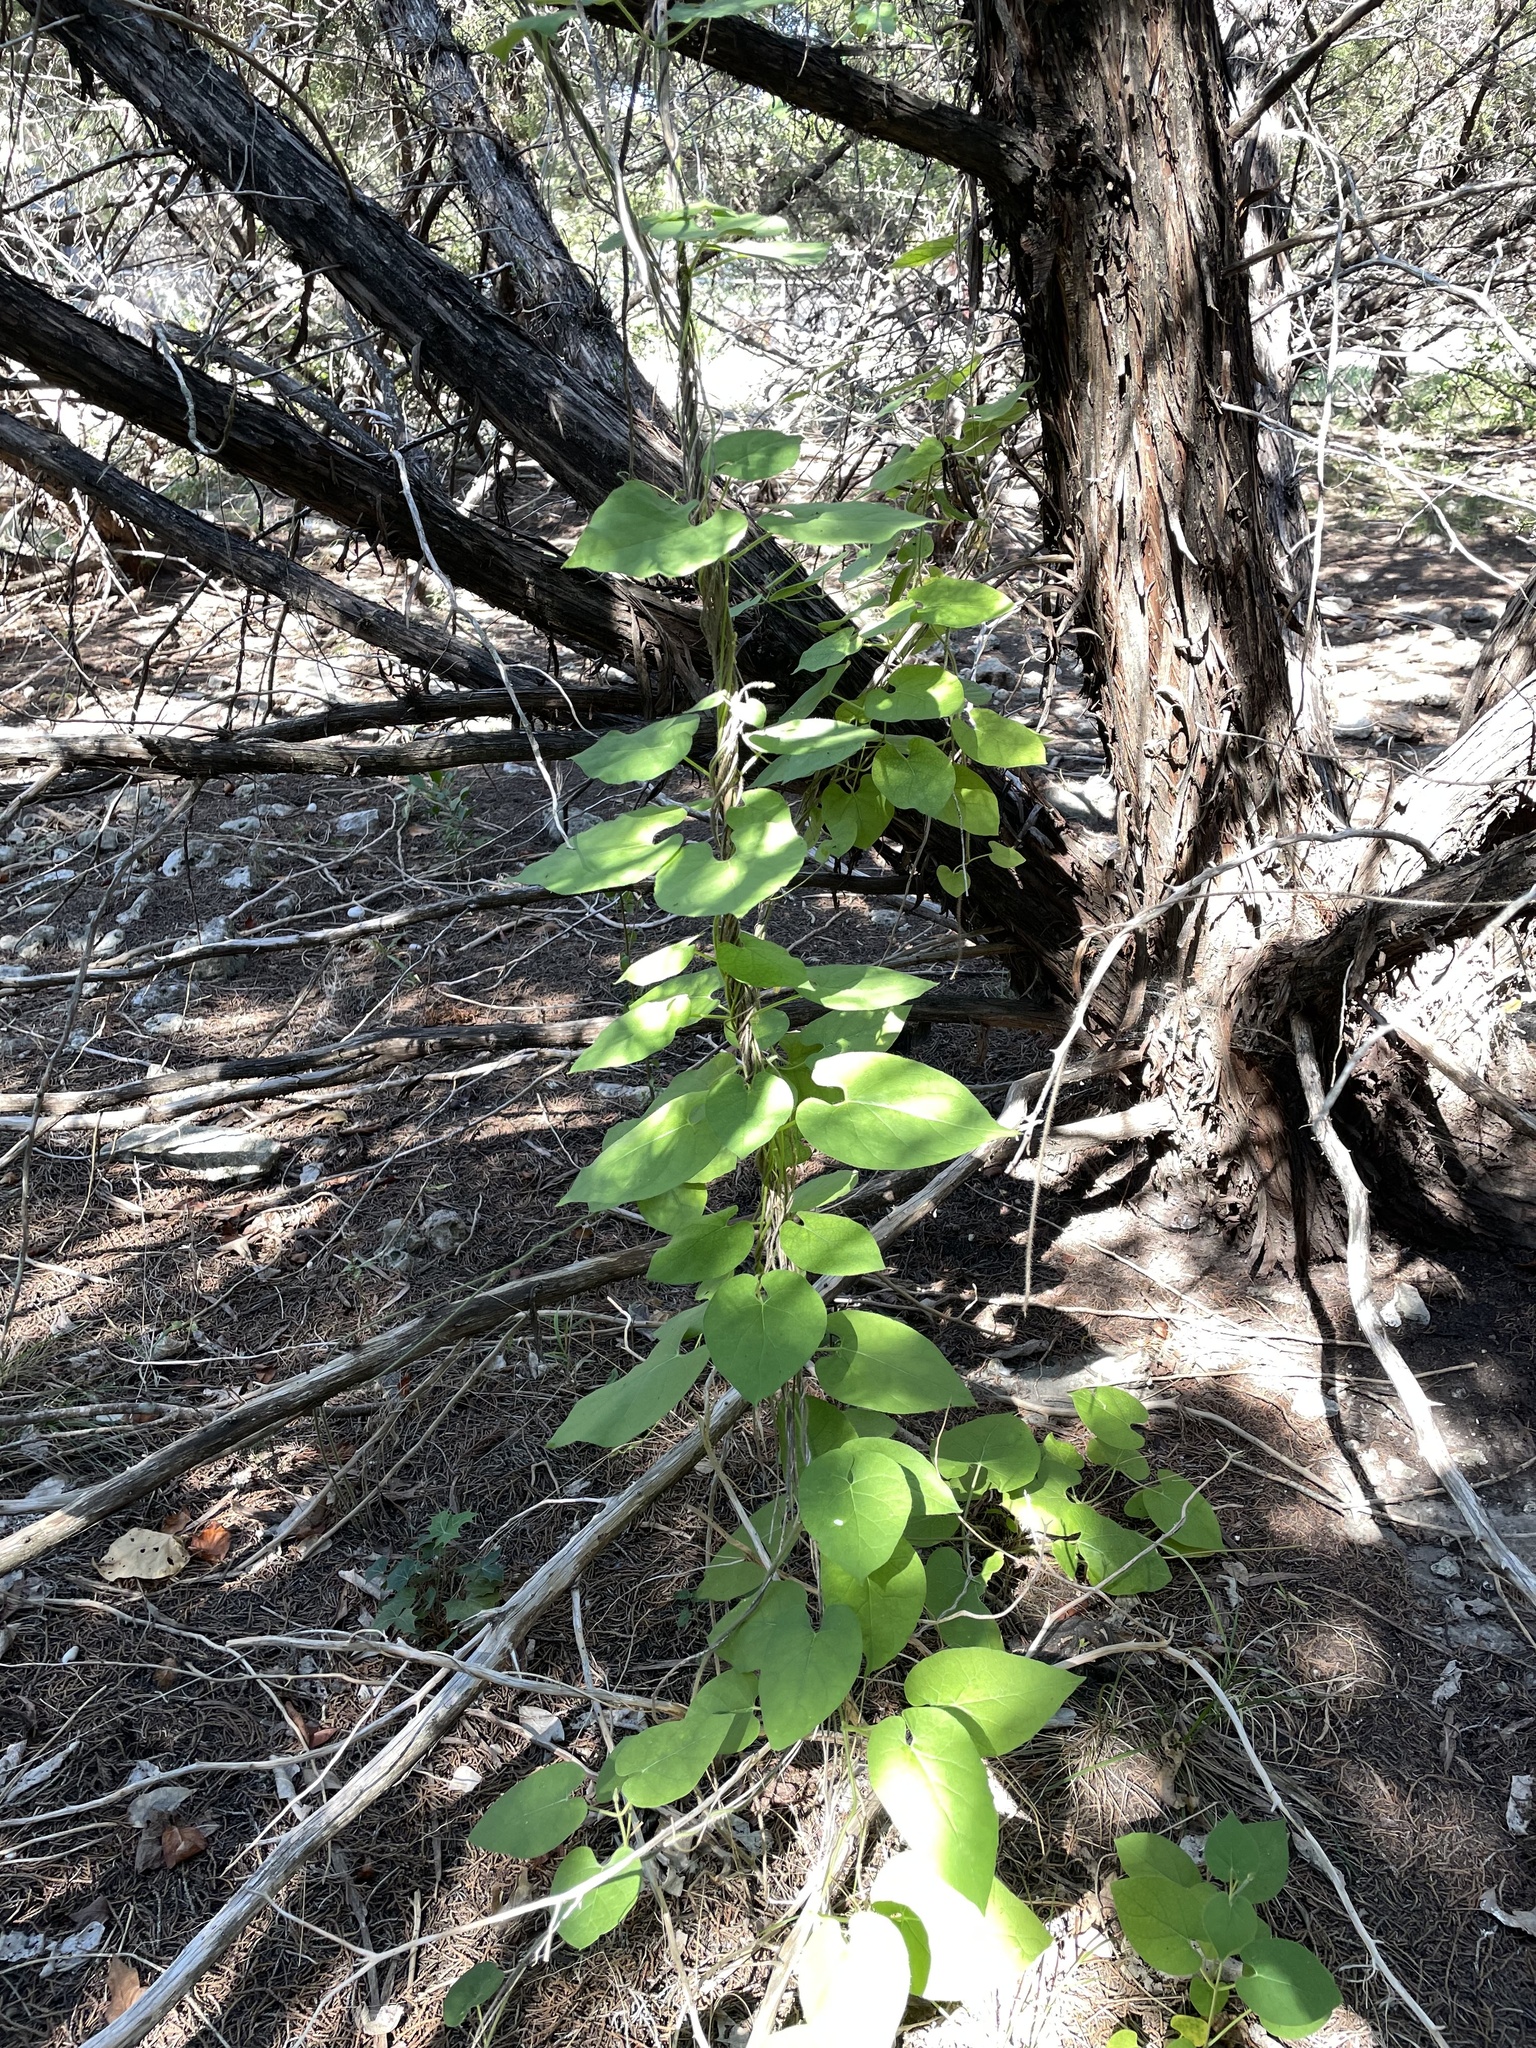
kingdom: Plantae
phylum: Tracheophyta
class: Magnoliopsida
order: Gentianales
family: Apocynaceae
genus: Dictyanthus
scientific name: Dictyanthus reticulatus
